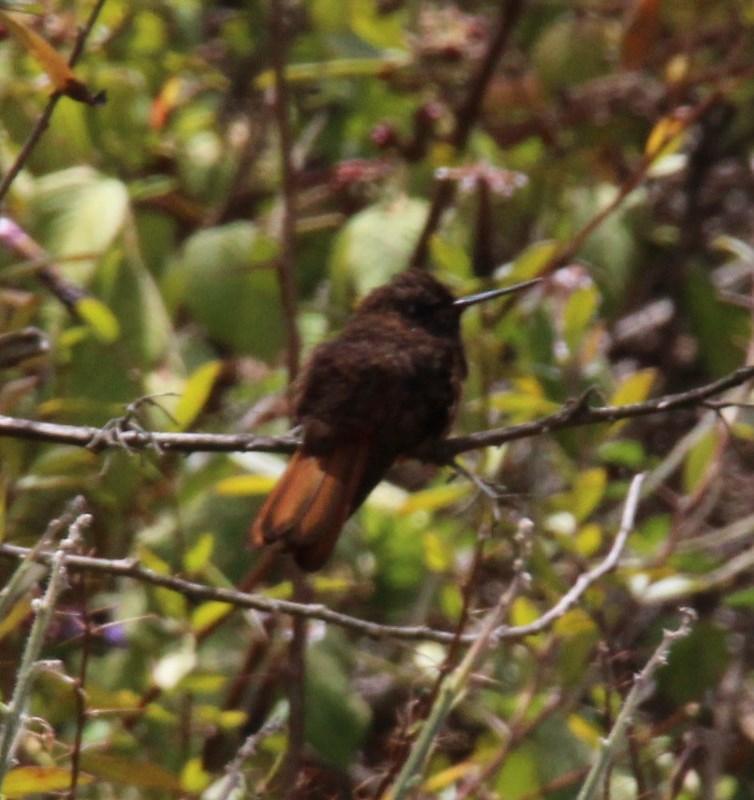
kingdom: Animalia
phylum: Chordata
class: Aves
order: Apodiformes
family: Trochilidae
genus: Aglaeactis
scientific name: Aglaeactis cupripennis
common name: Shining sunbeam
